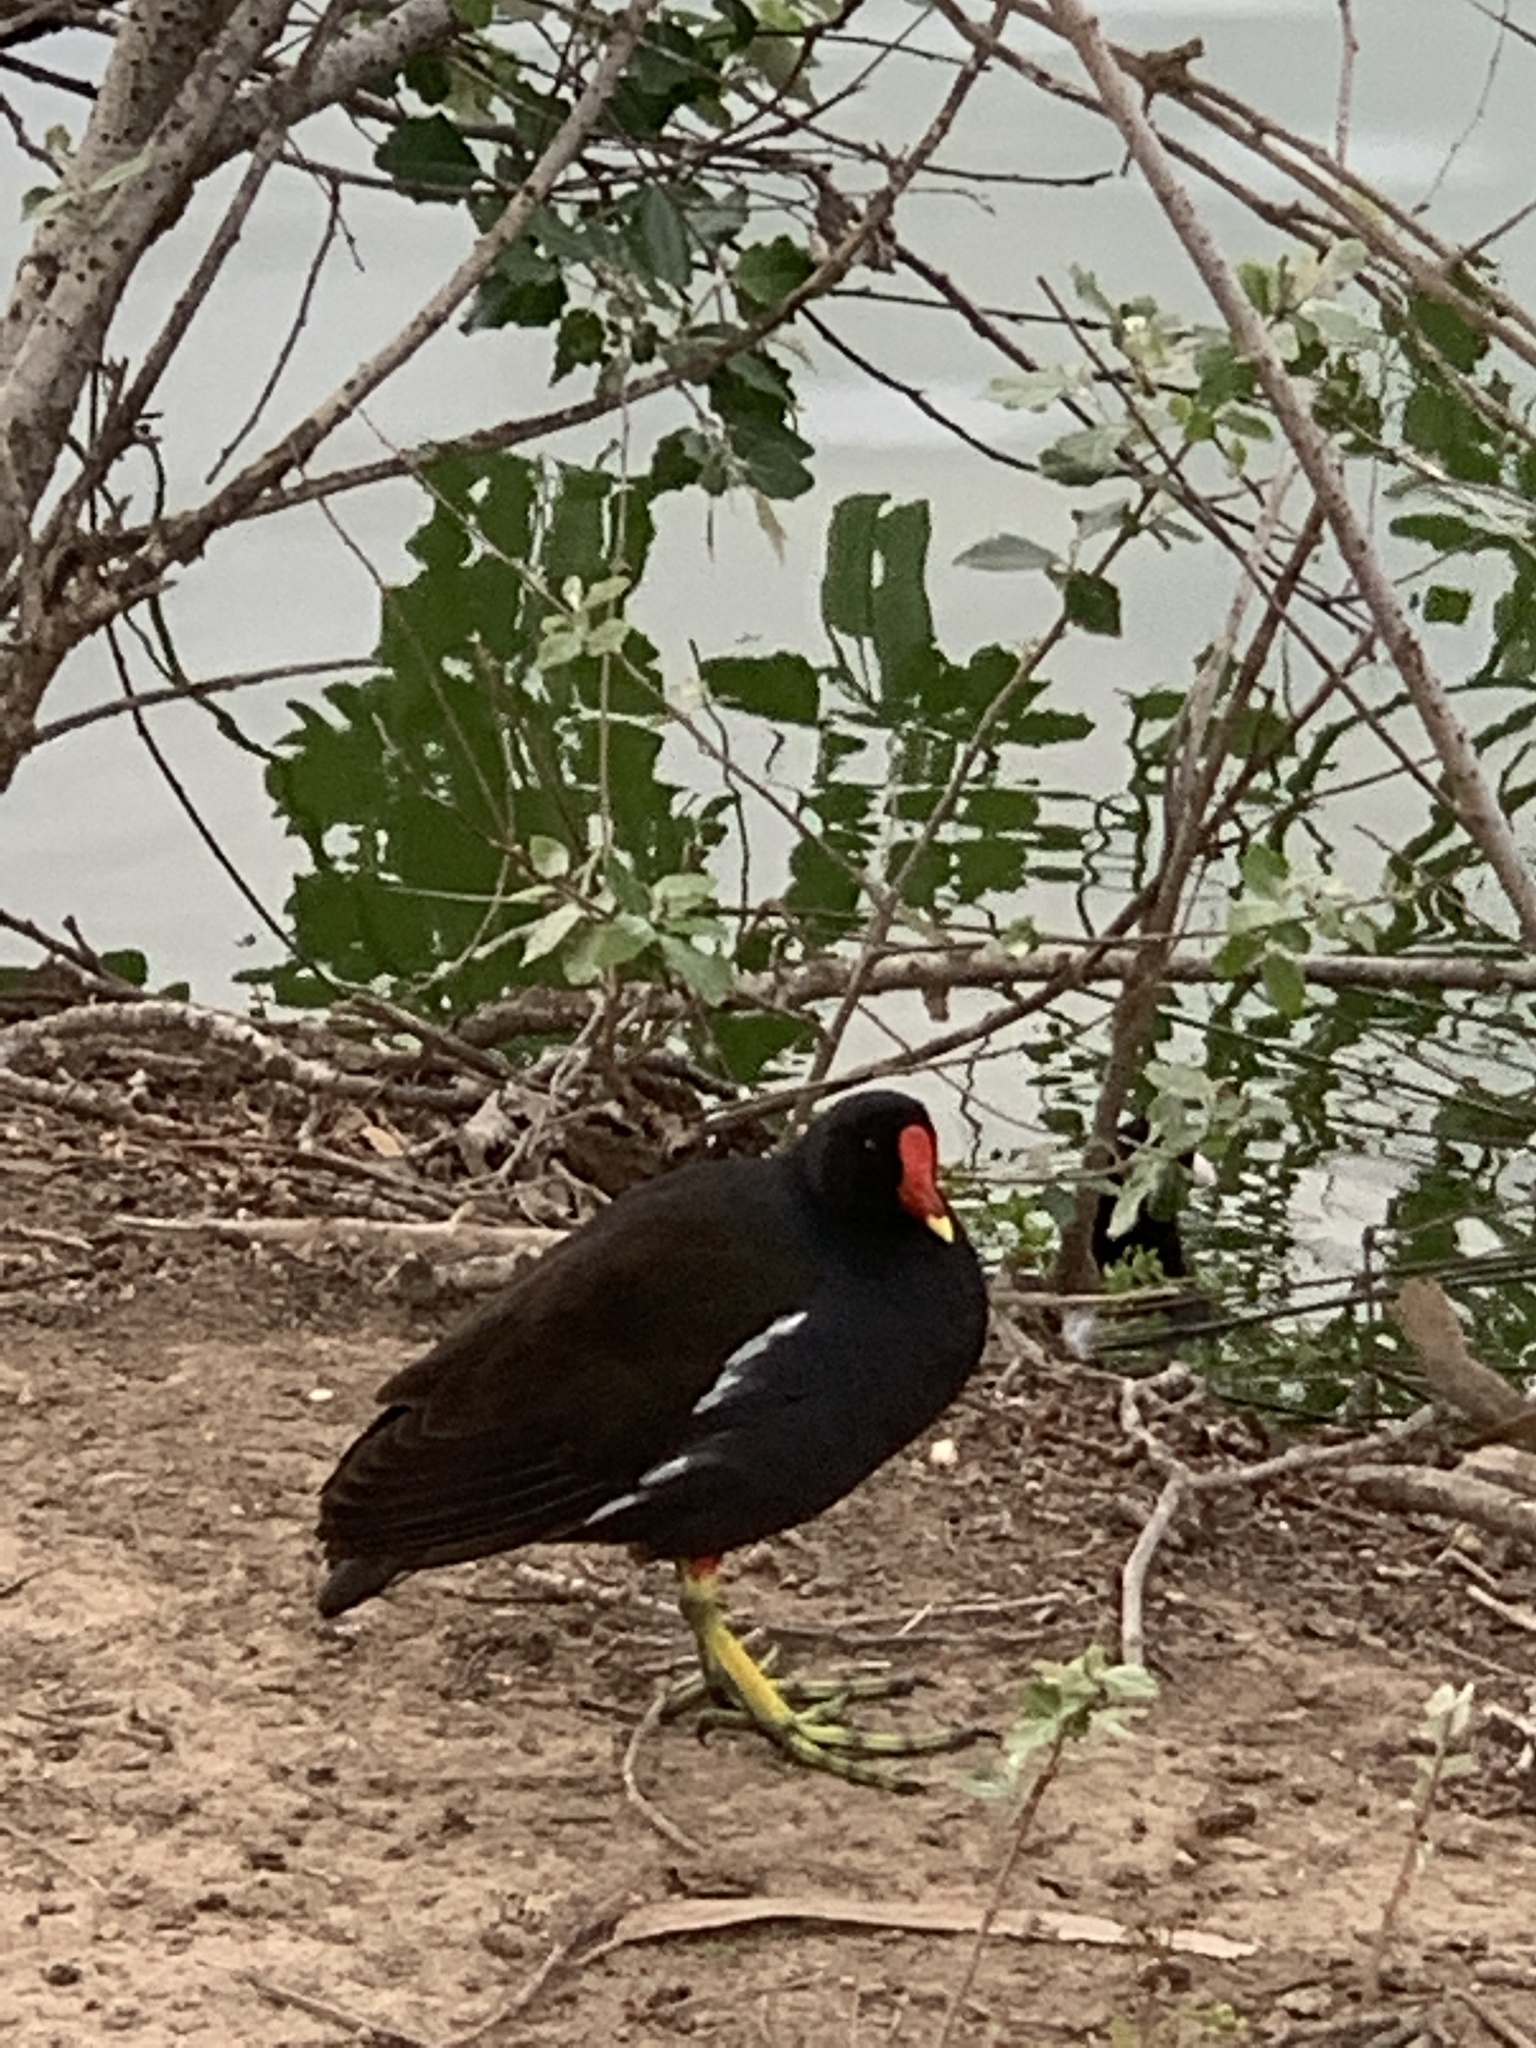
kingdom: Animalia
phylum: Chordata
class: Aves
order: Gruiformes
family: Rallidae
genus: Gallinula
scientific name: Gallinula chloropus
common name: Common moorhen
